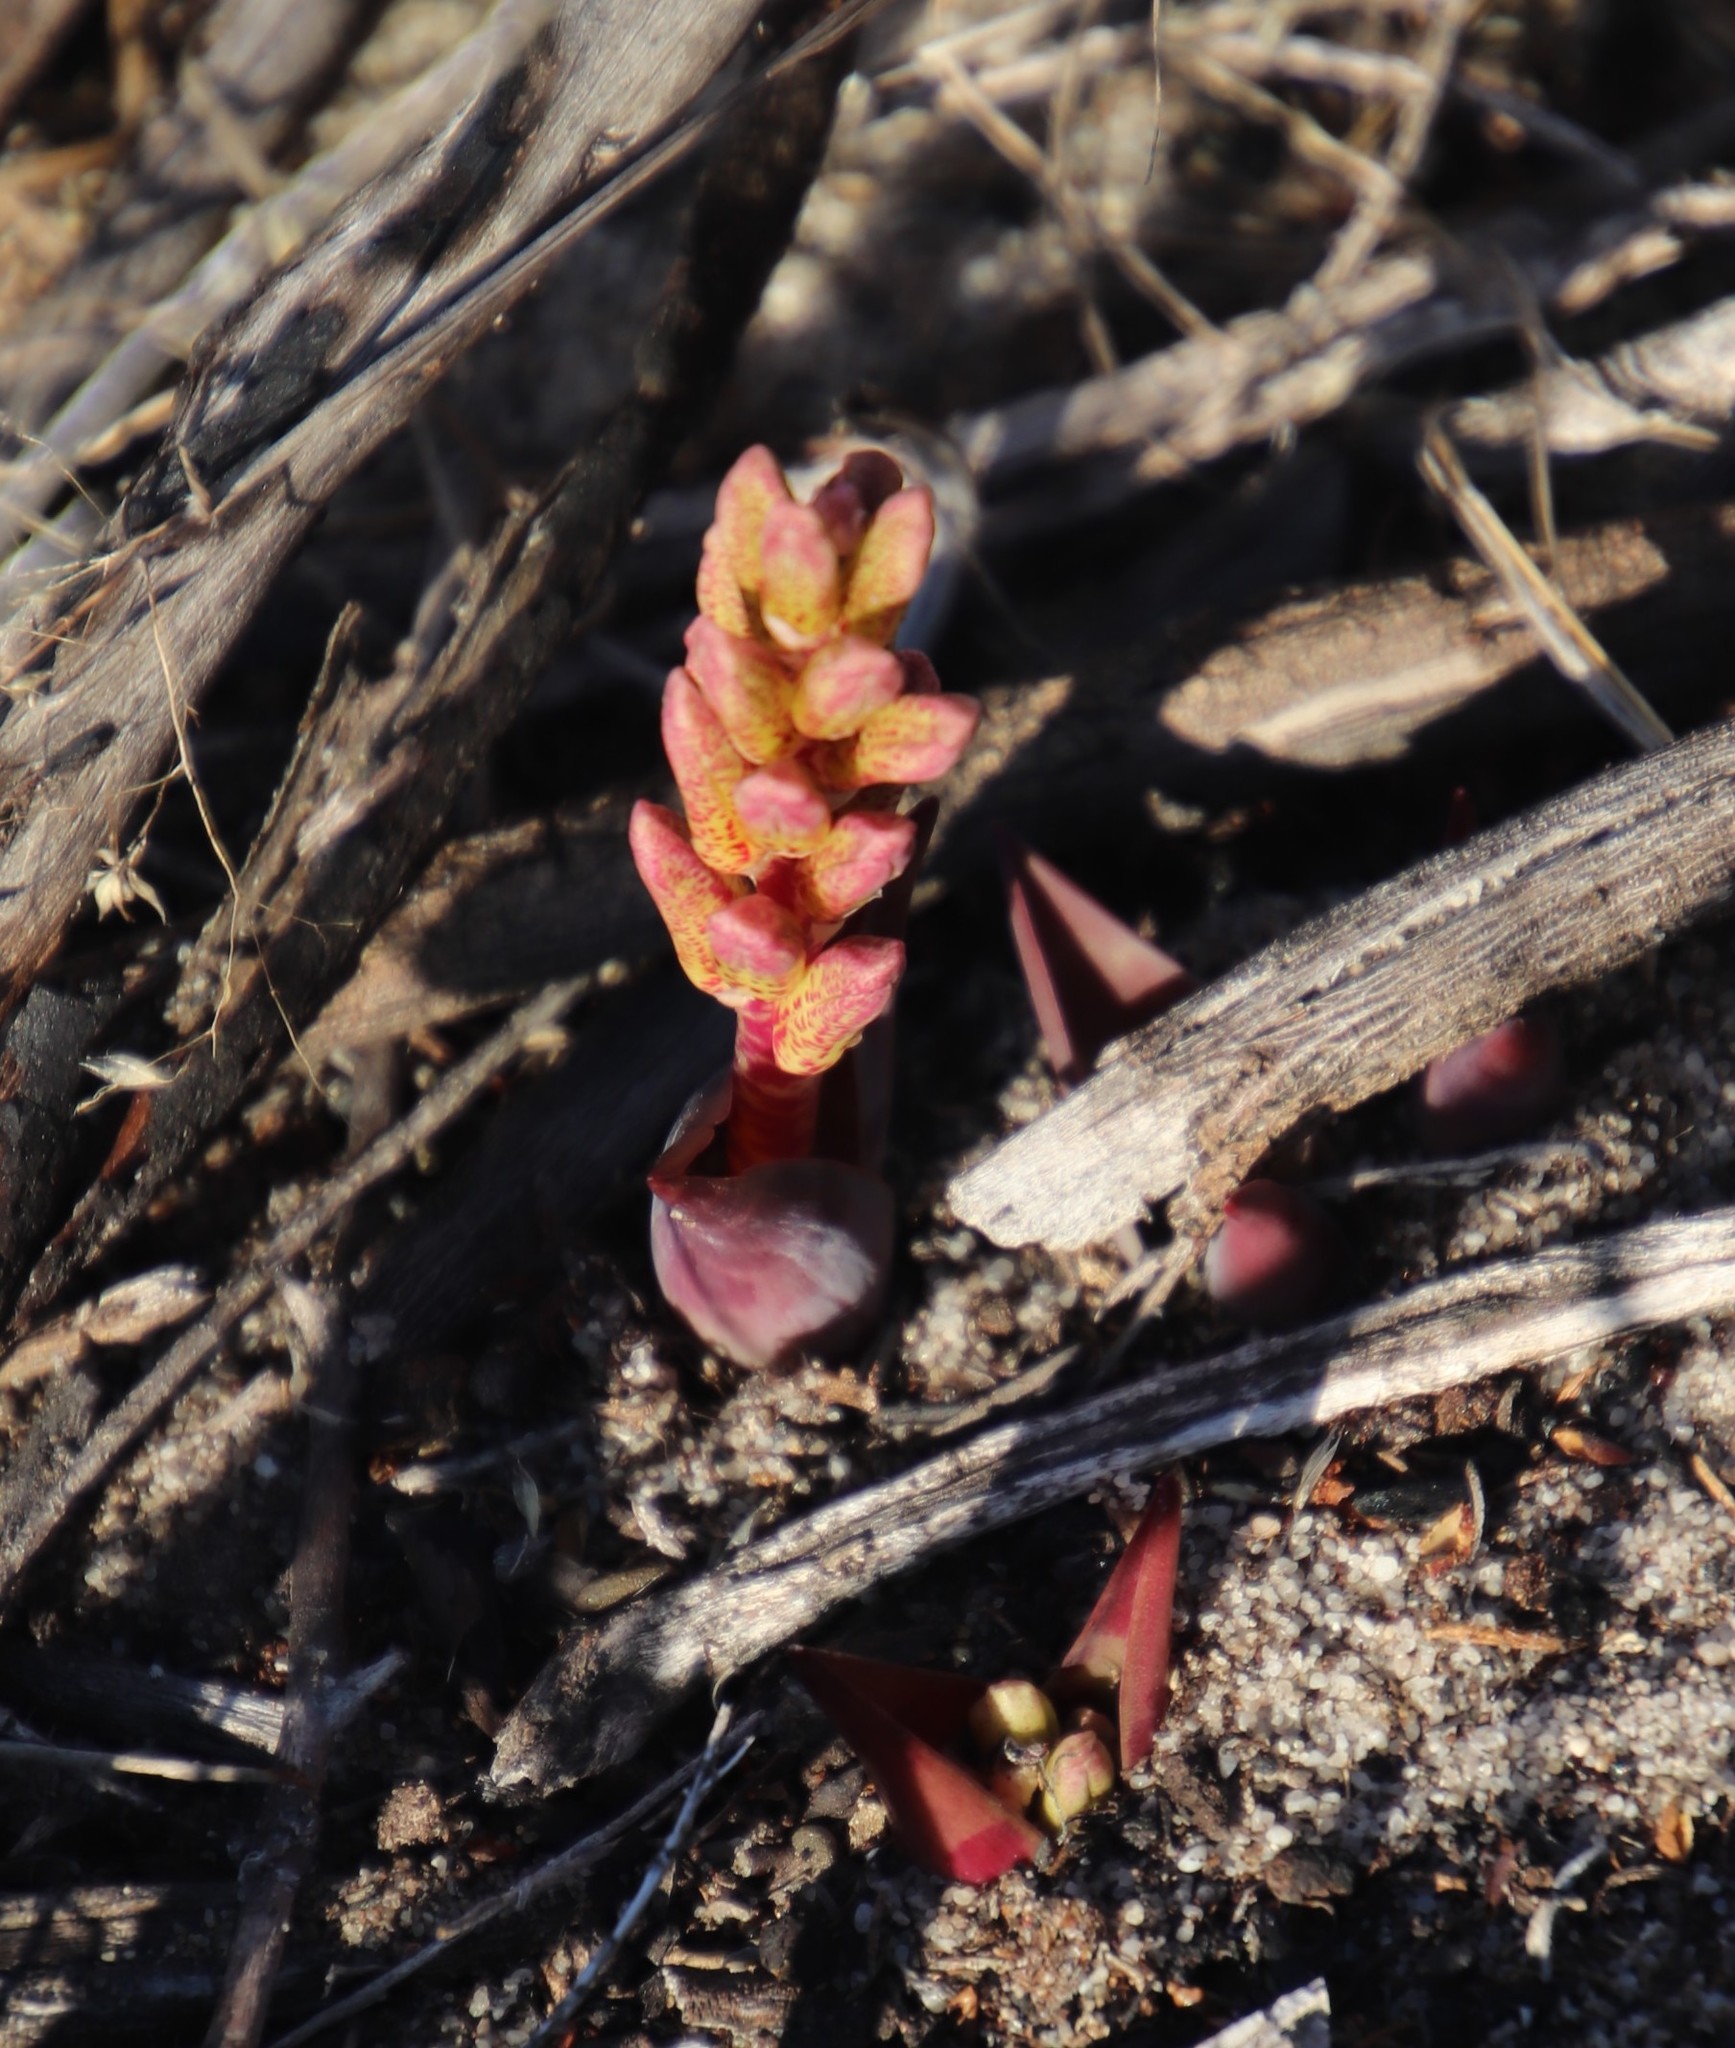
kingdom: Plantae
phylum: Tracheophyta
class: Liliopsida
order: Asparagales
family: Asparagaceae
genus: Lachenalia
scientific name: Lachenalia punctata
